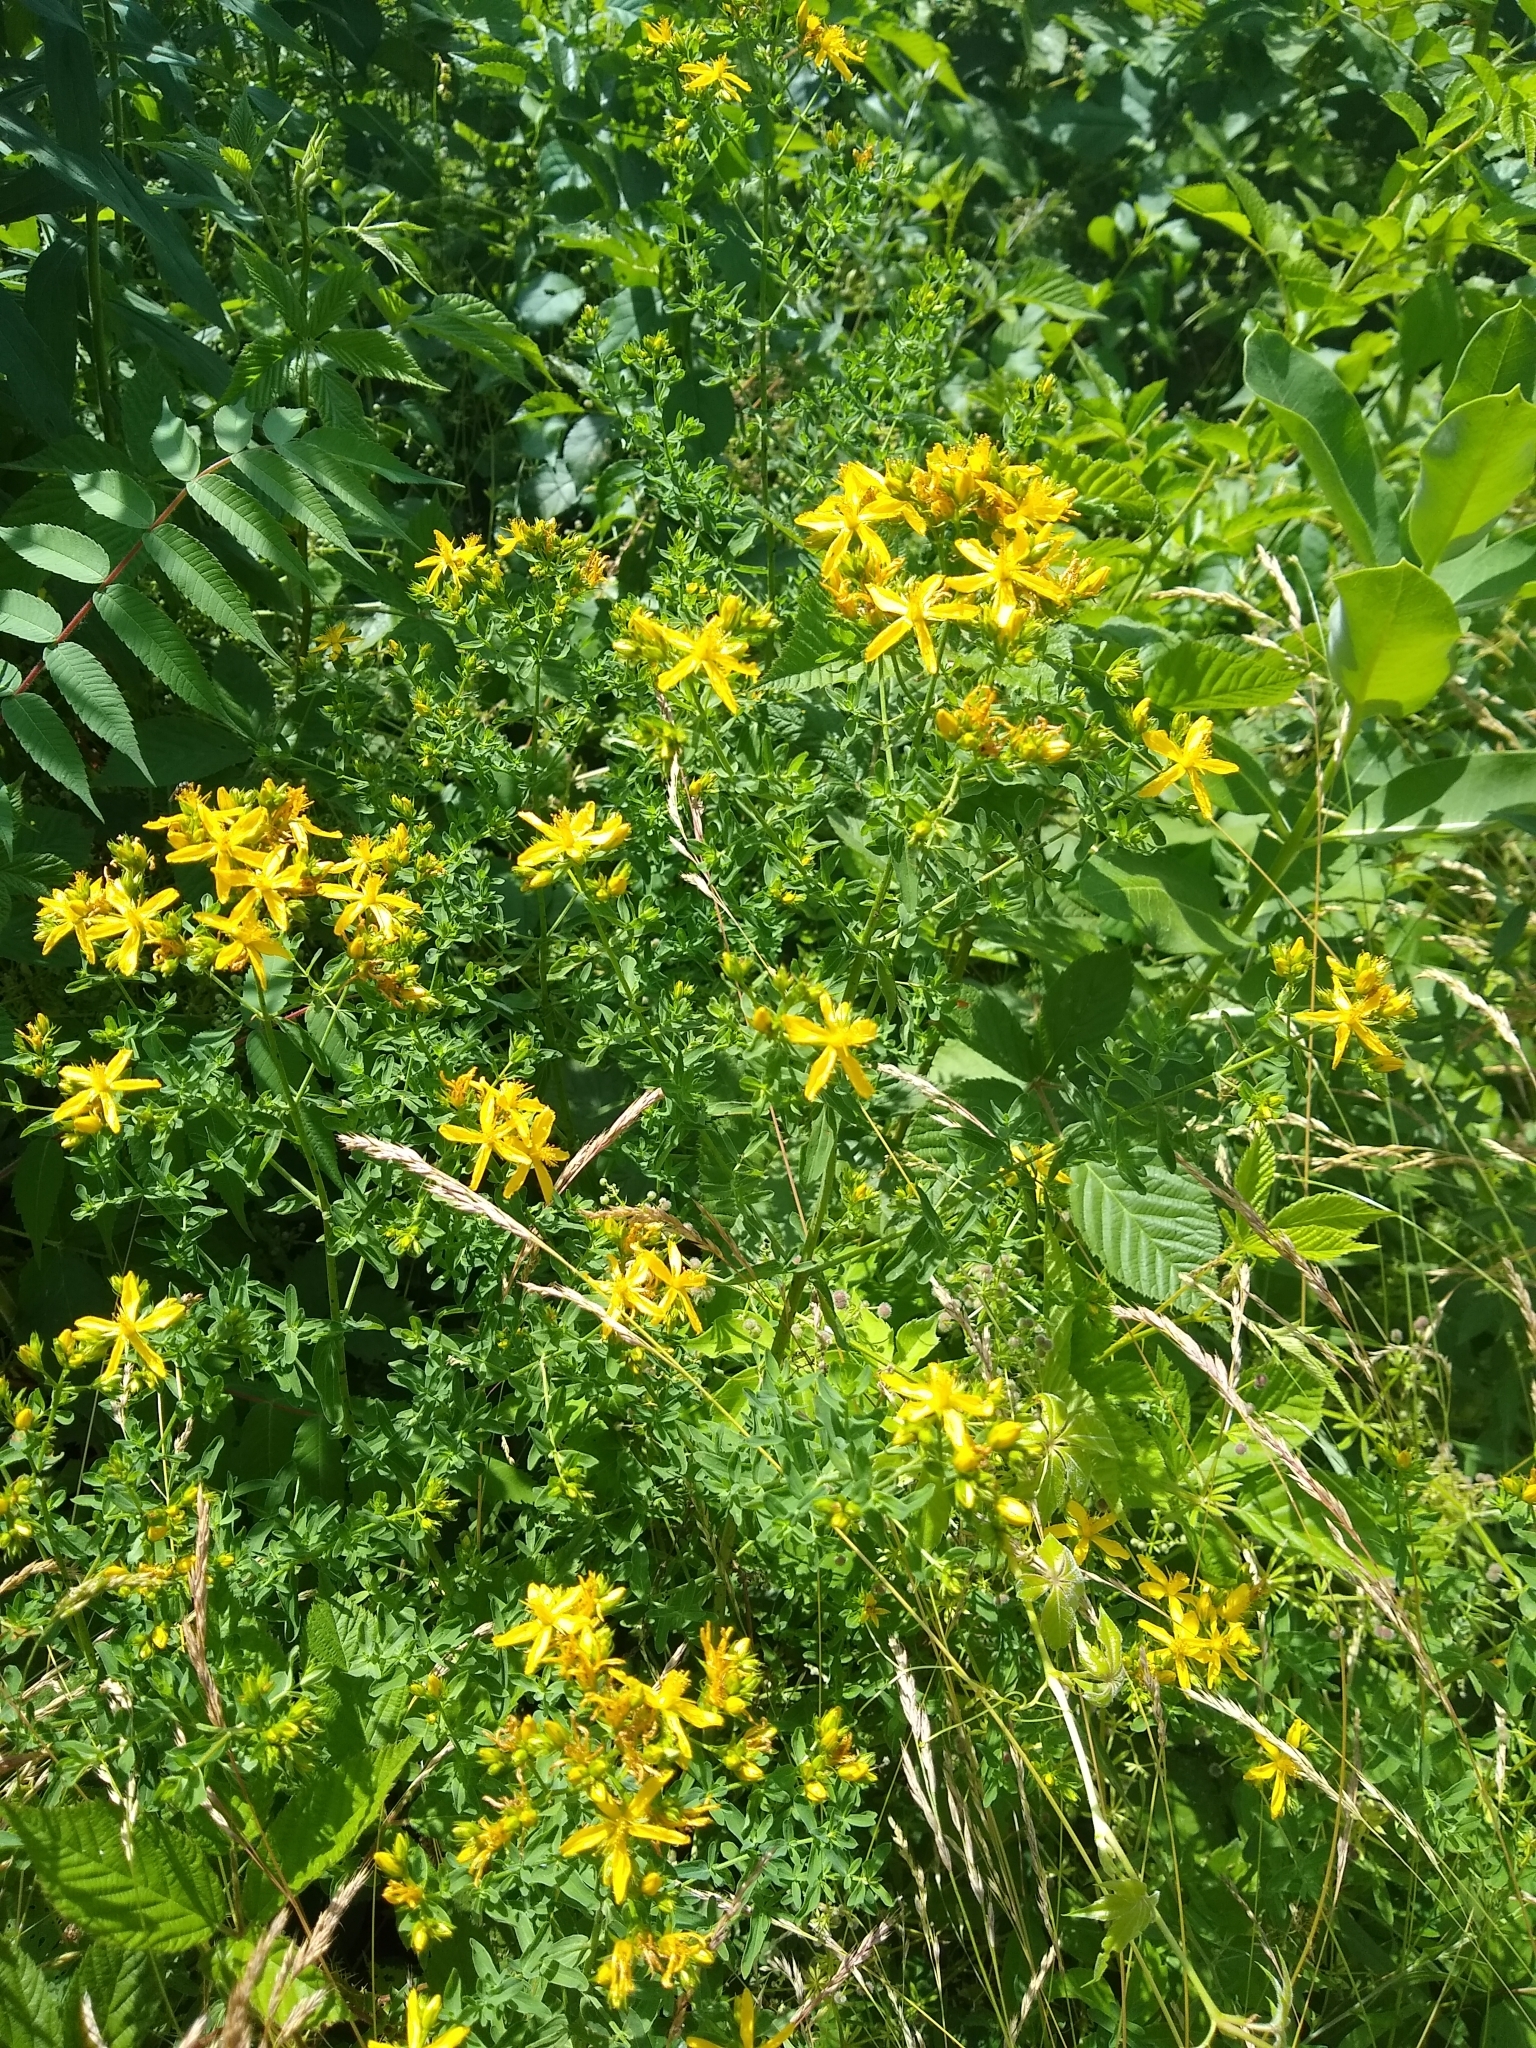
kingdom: Plantae
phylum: Tracheophyta
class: Magnoliopsida
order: Malpighiales
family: Hypericaceae
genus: Hypericum
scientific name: Hypericum perforatum
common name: Common st. johnswort
